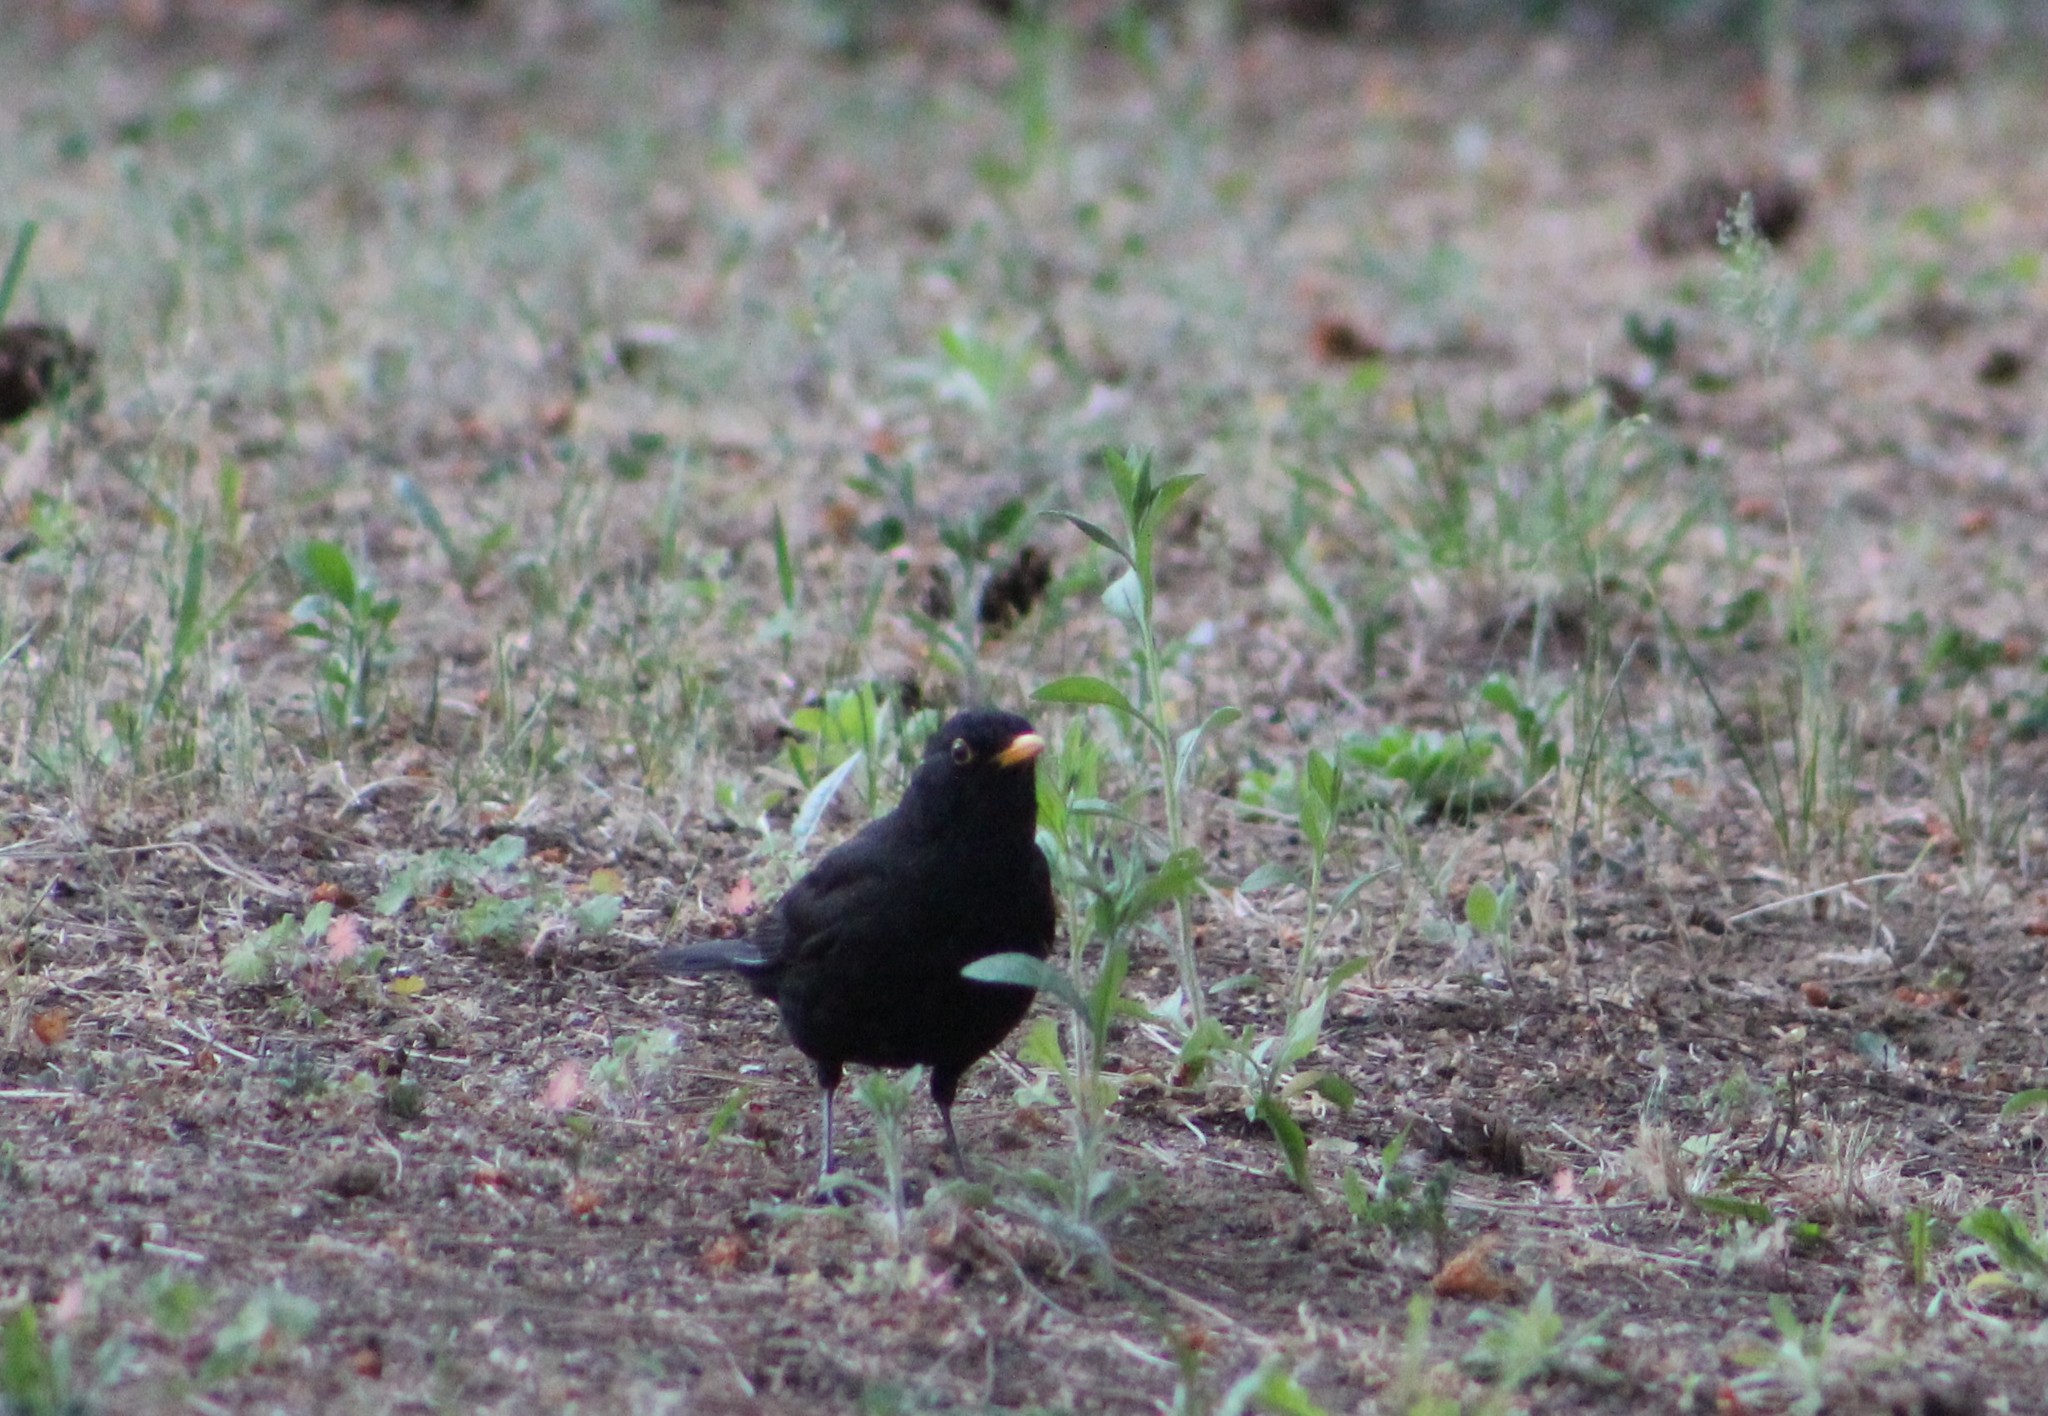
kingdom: Animalia
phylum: Chordata
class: Aves
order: Passeriformes
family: Turdidae
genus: Turdus
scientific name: Turdus merula
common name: Common blackbird
